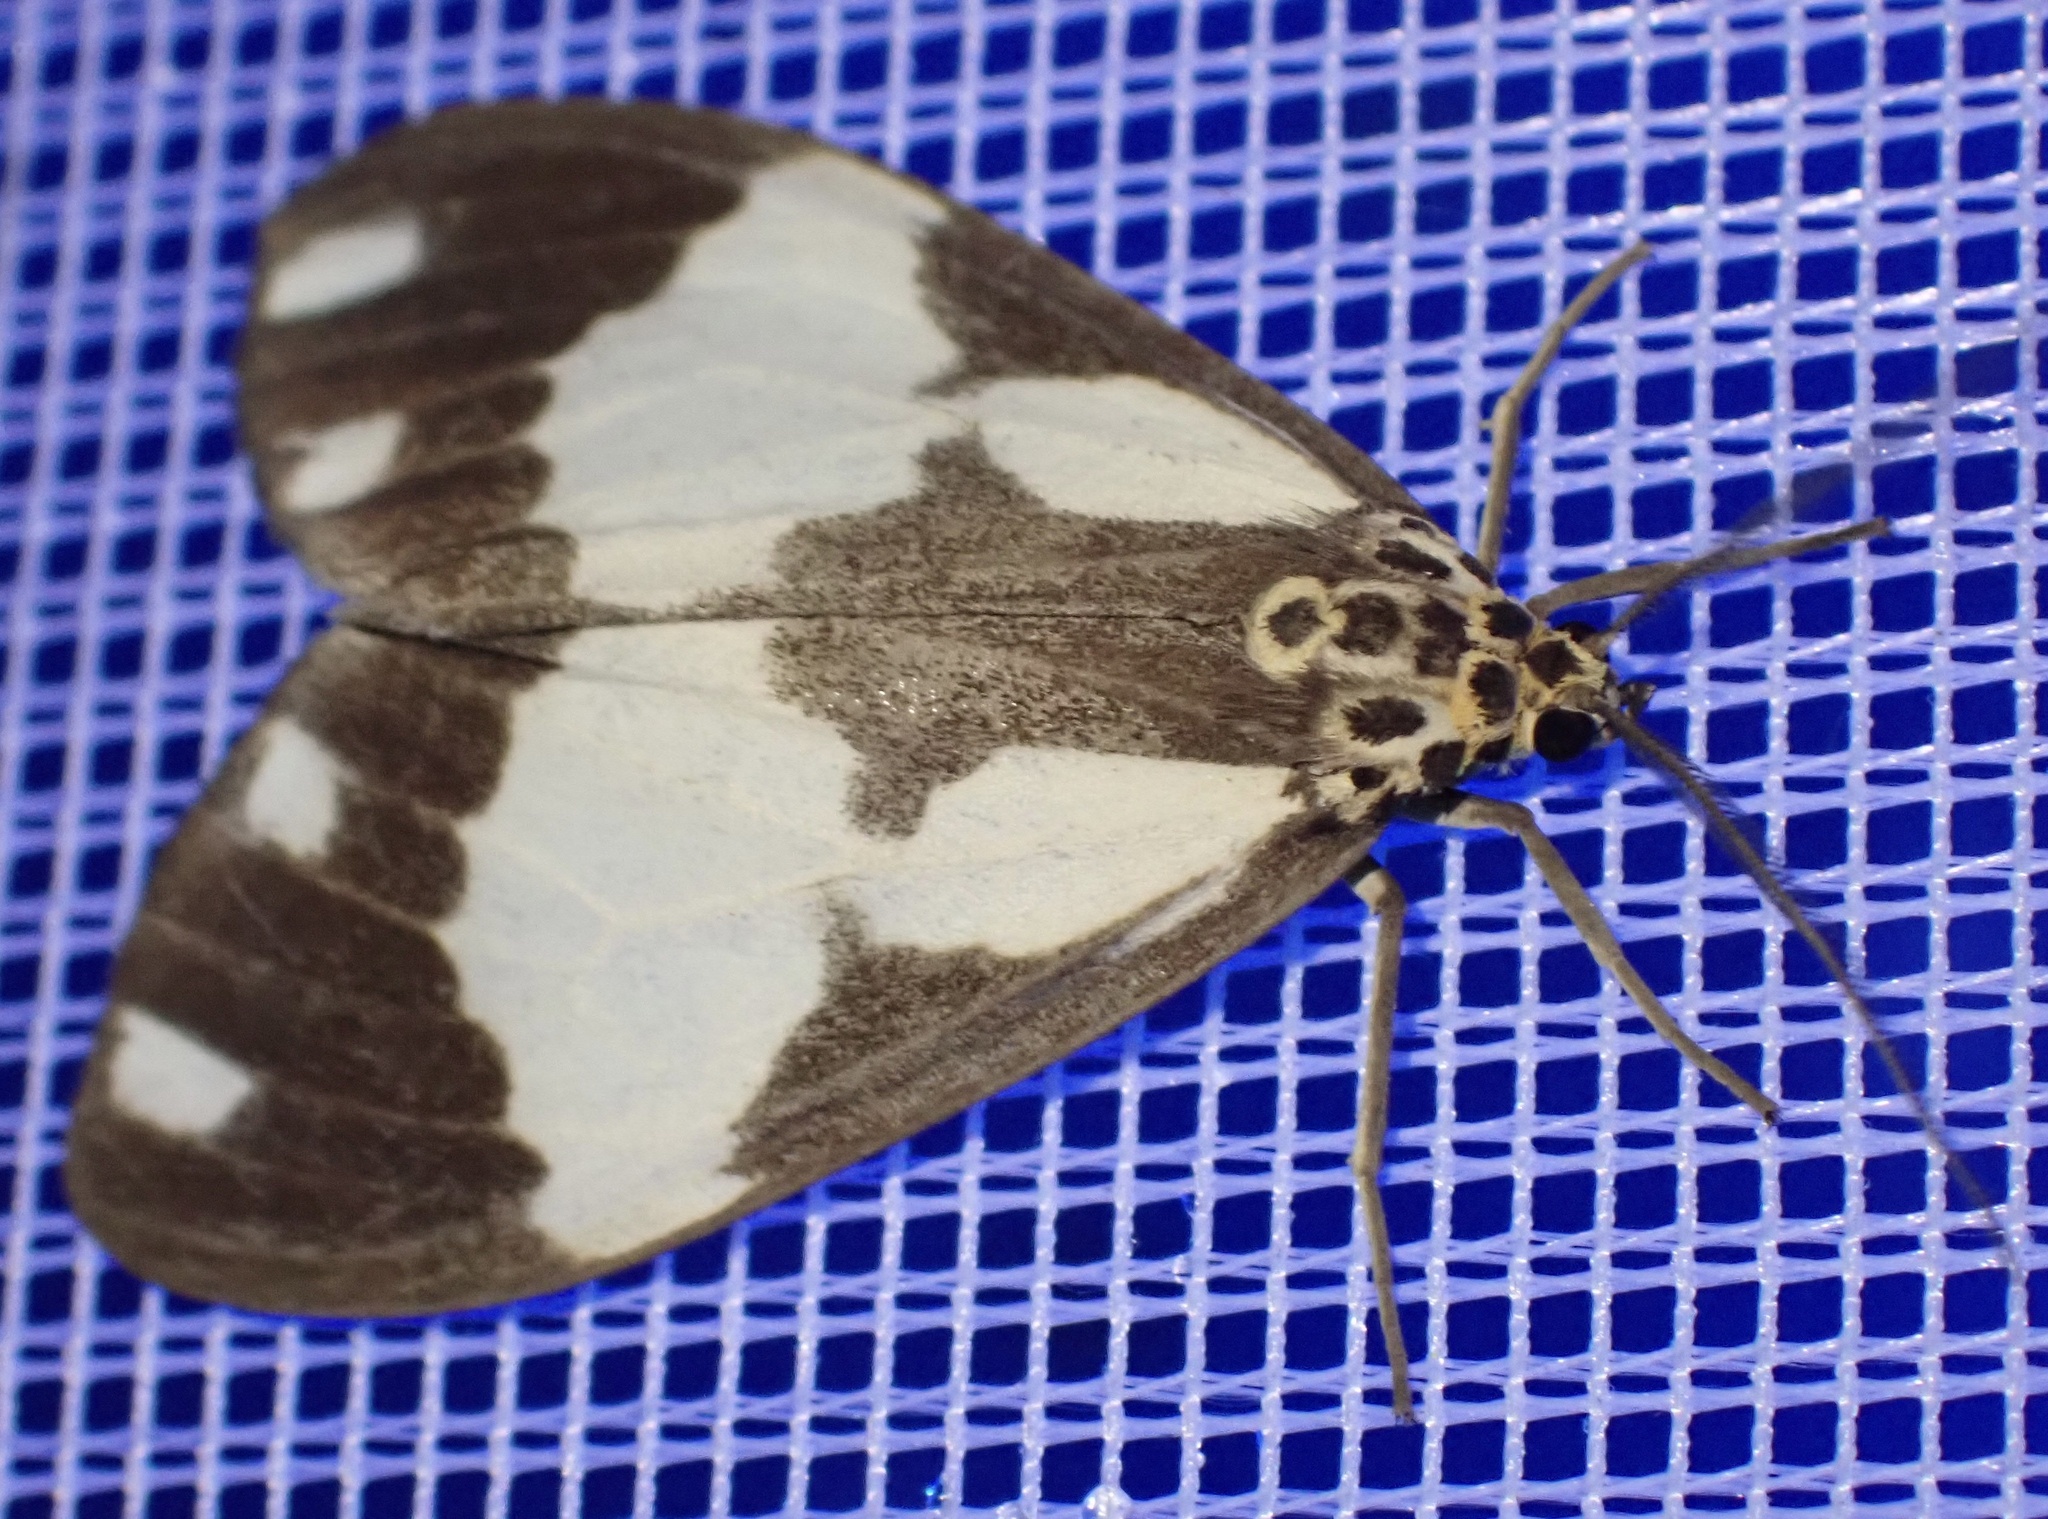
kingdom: Animalia
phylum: Arthropoda
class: Insecta
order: Lepidoptera
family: Erebidae
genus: Nyctemera
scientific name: Nyctemera evergista
